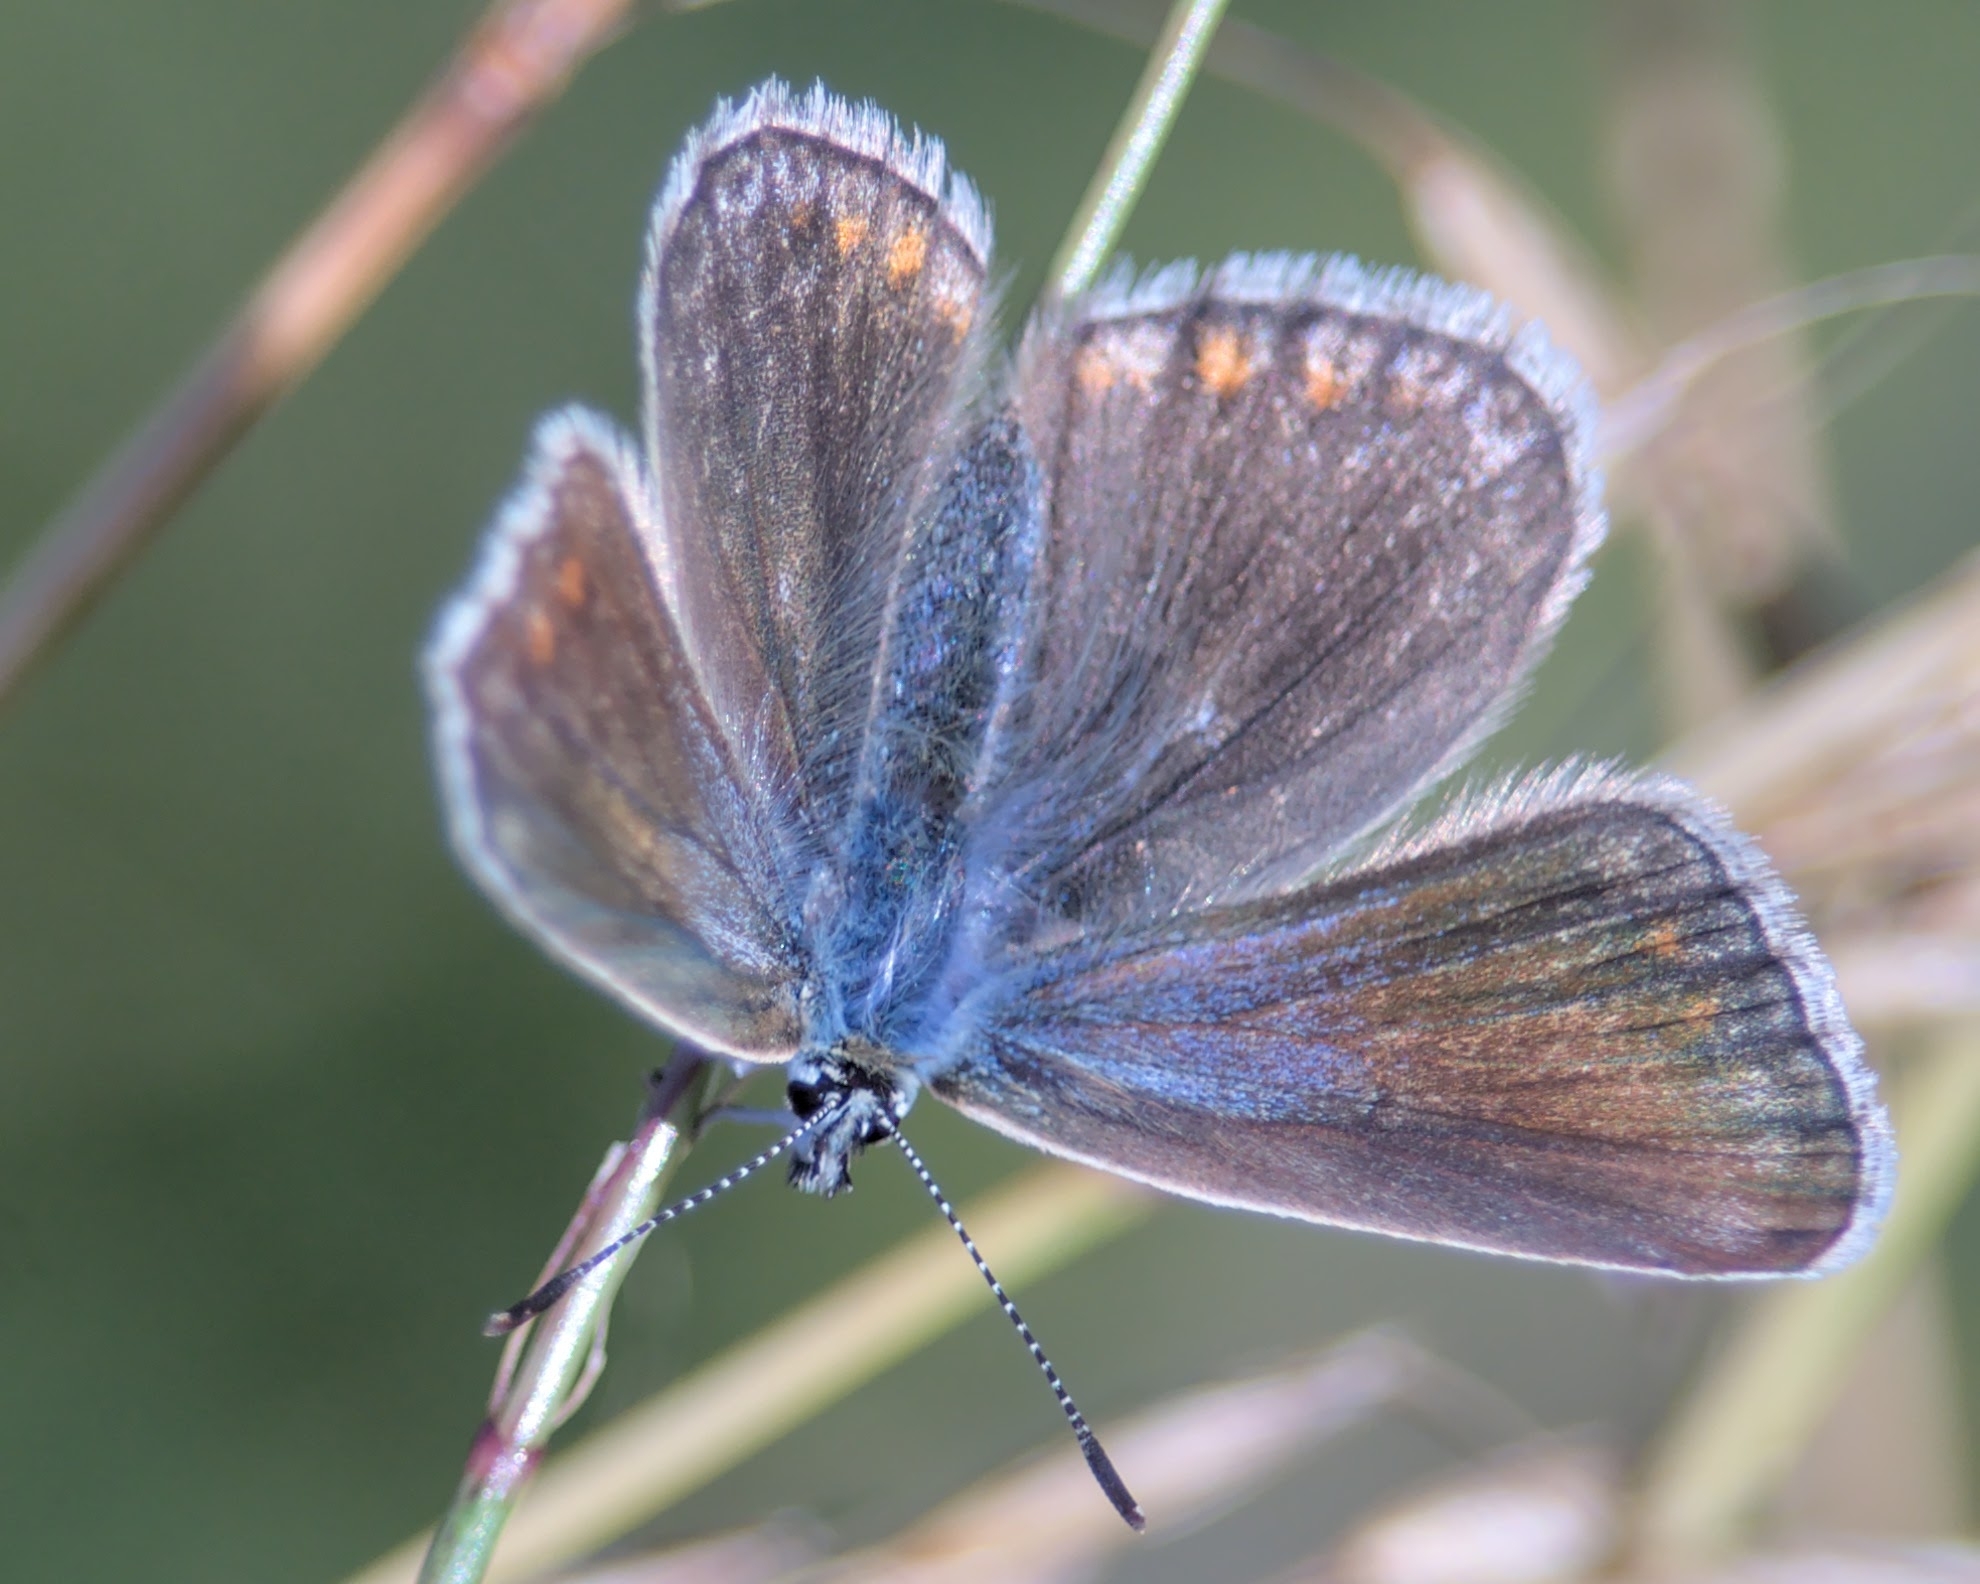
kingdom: Animalia
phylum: Arthropoda
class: Insecta
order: Lepidoptera
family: Lycaenidae
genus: Polyommatus
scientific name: Polyommatus icarus
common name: Common blue
